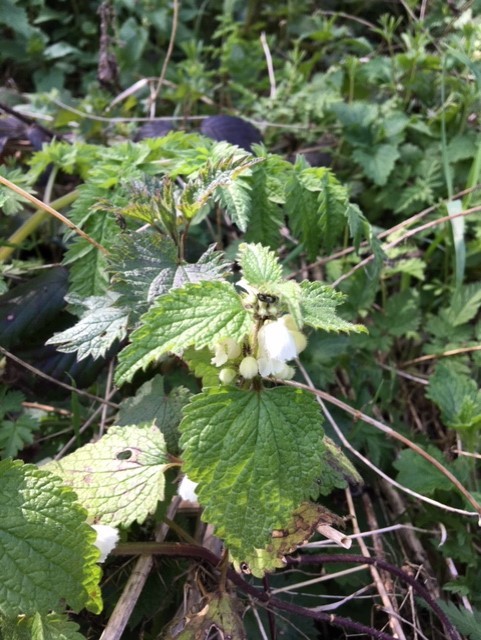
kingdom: Plantae
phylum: Tracheophyta
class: Magnoliopsida
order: Lamiales
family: Lamiaceae
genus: Lamium
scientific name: Lamium album
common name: White dead-nettle
